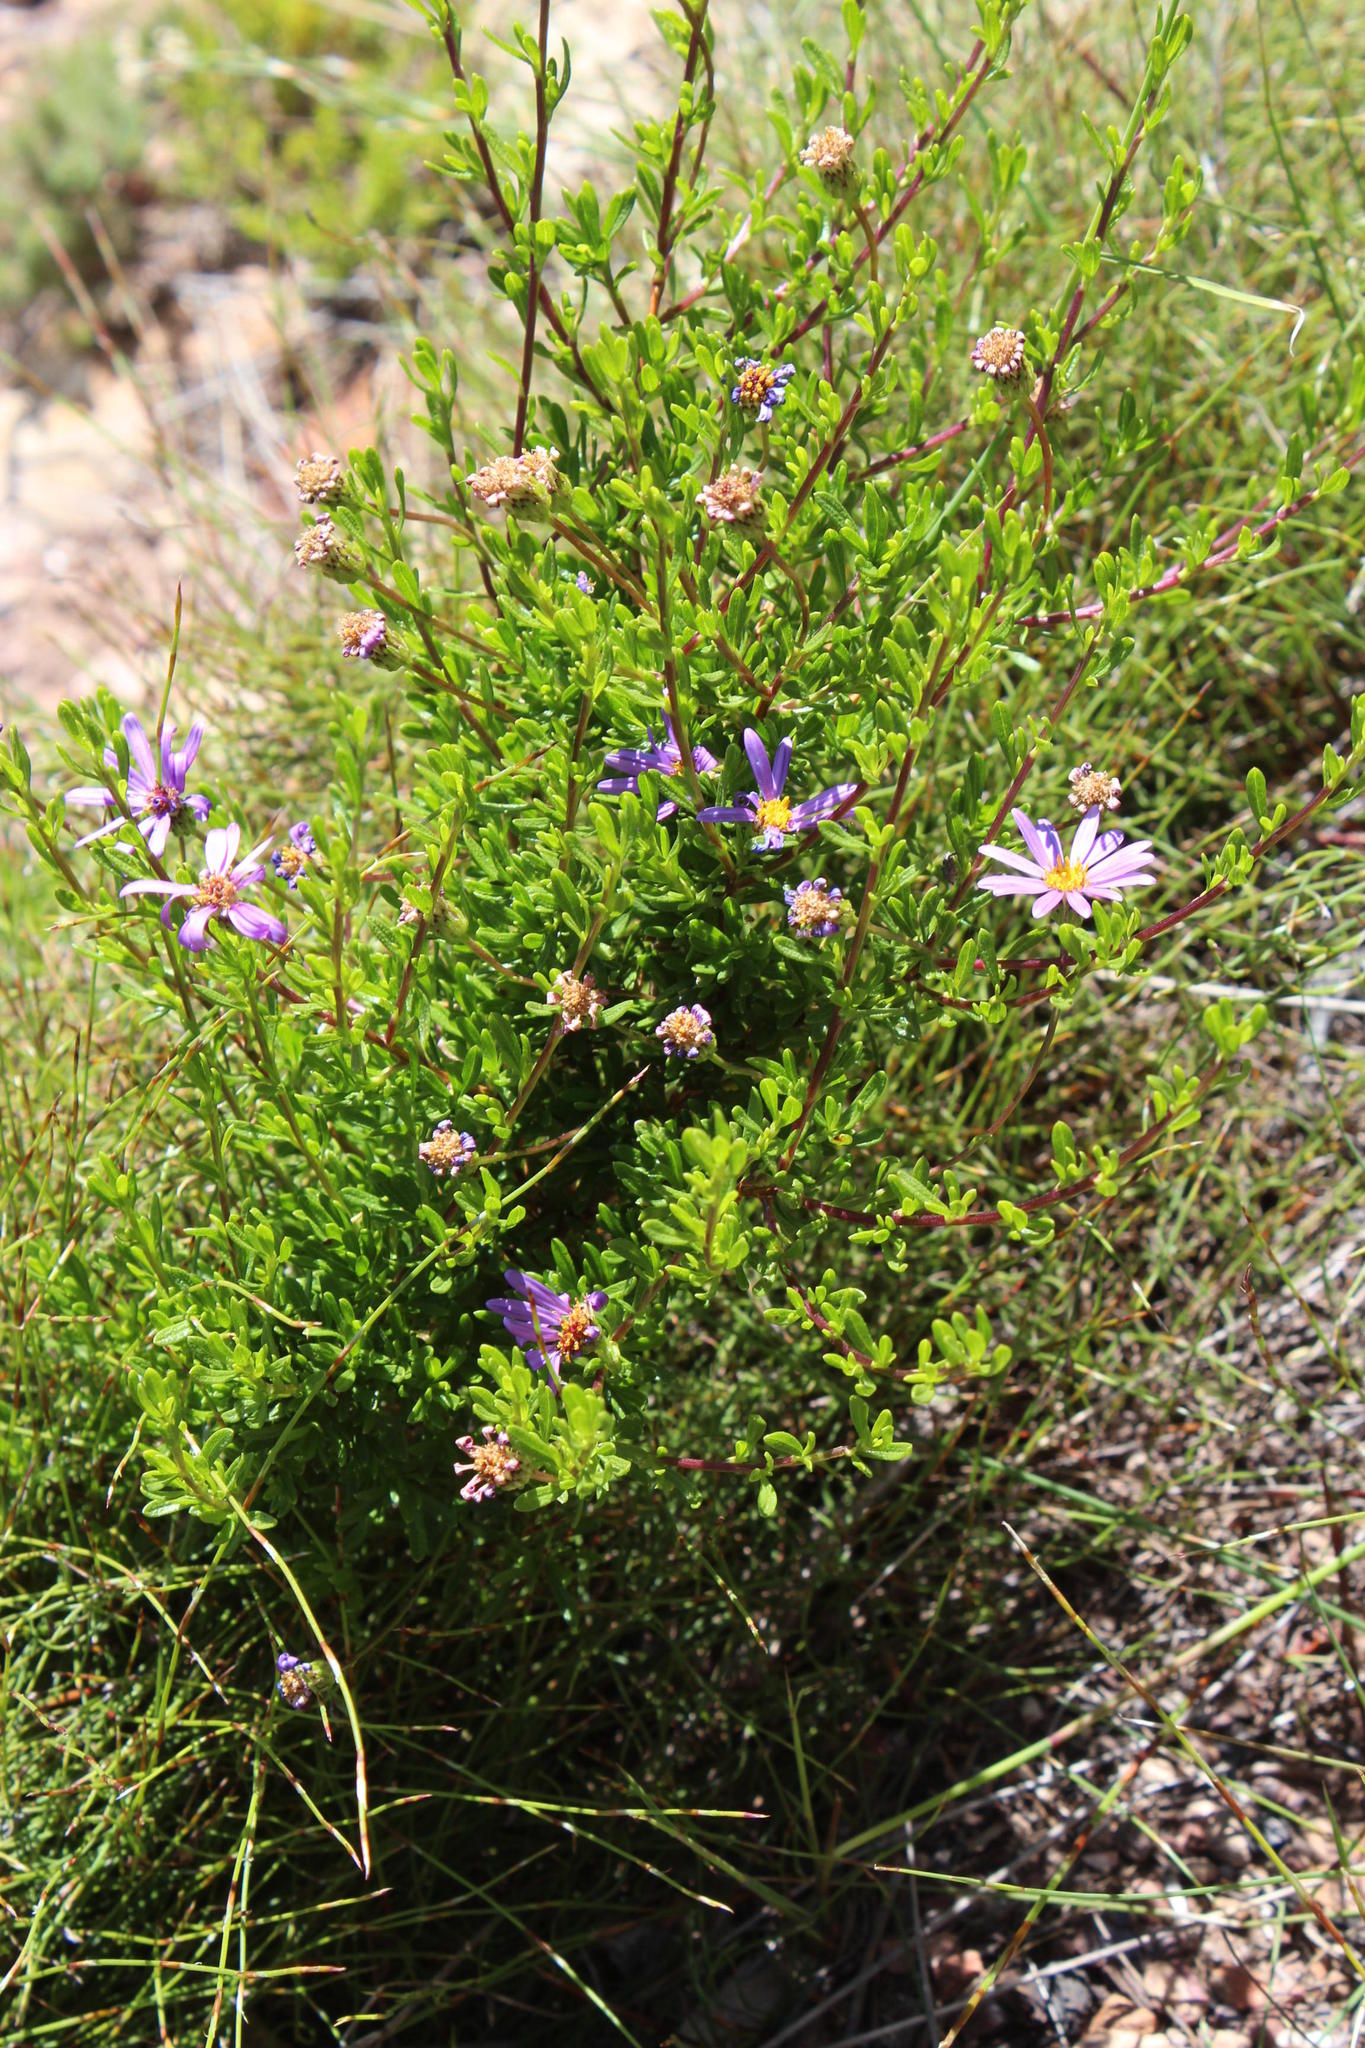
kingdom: Plantae
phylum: Tracheophyta
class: Magnoliopsida
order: Asterales
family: Asteraceae
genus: Felicia
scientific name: Felicia fruticosa
